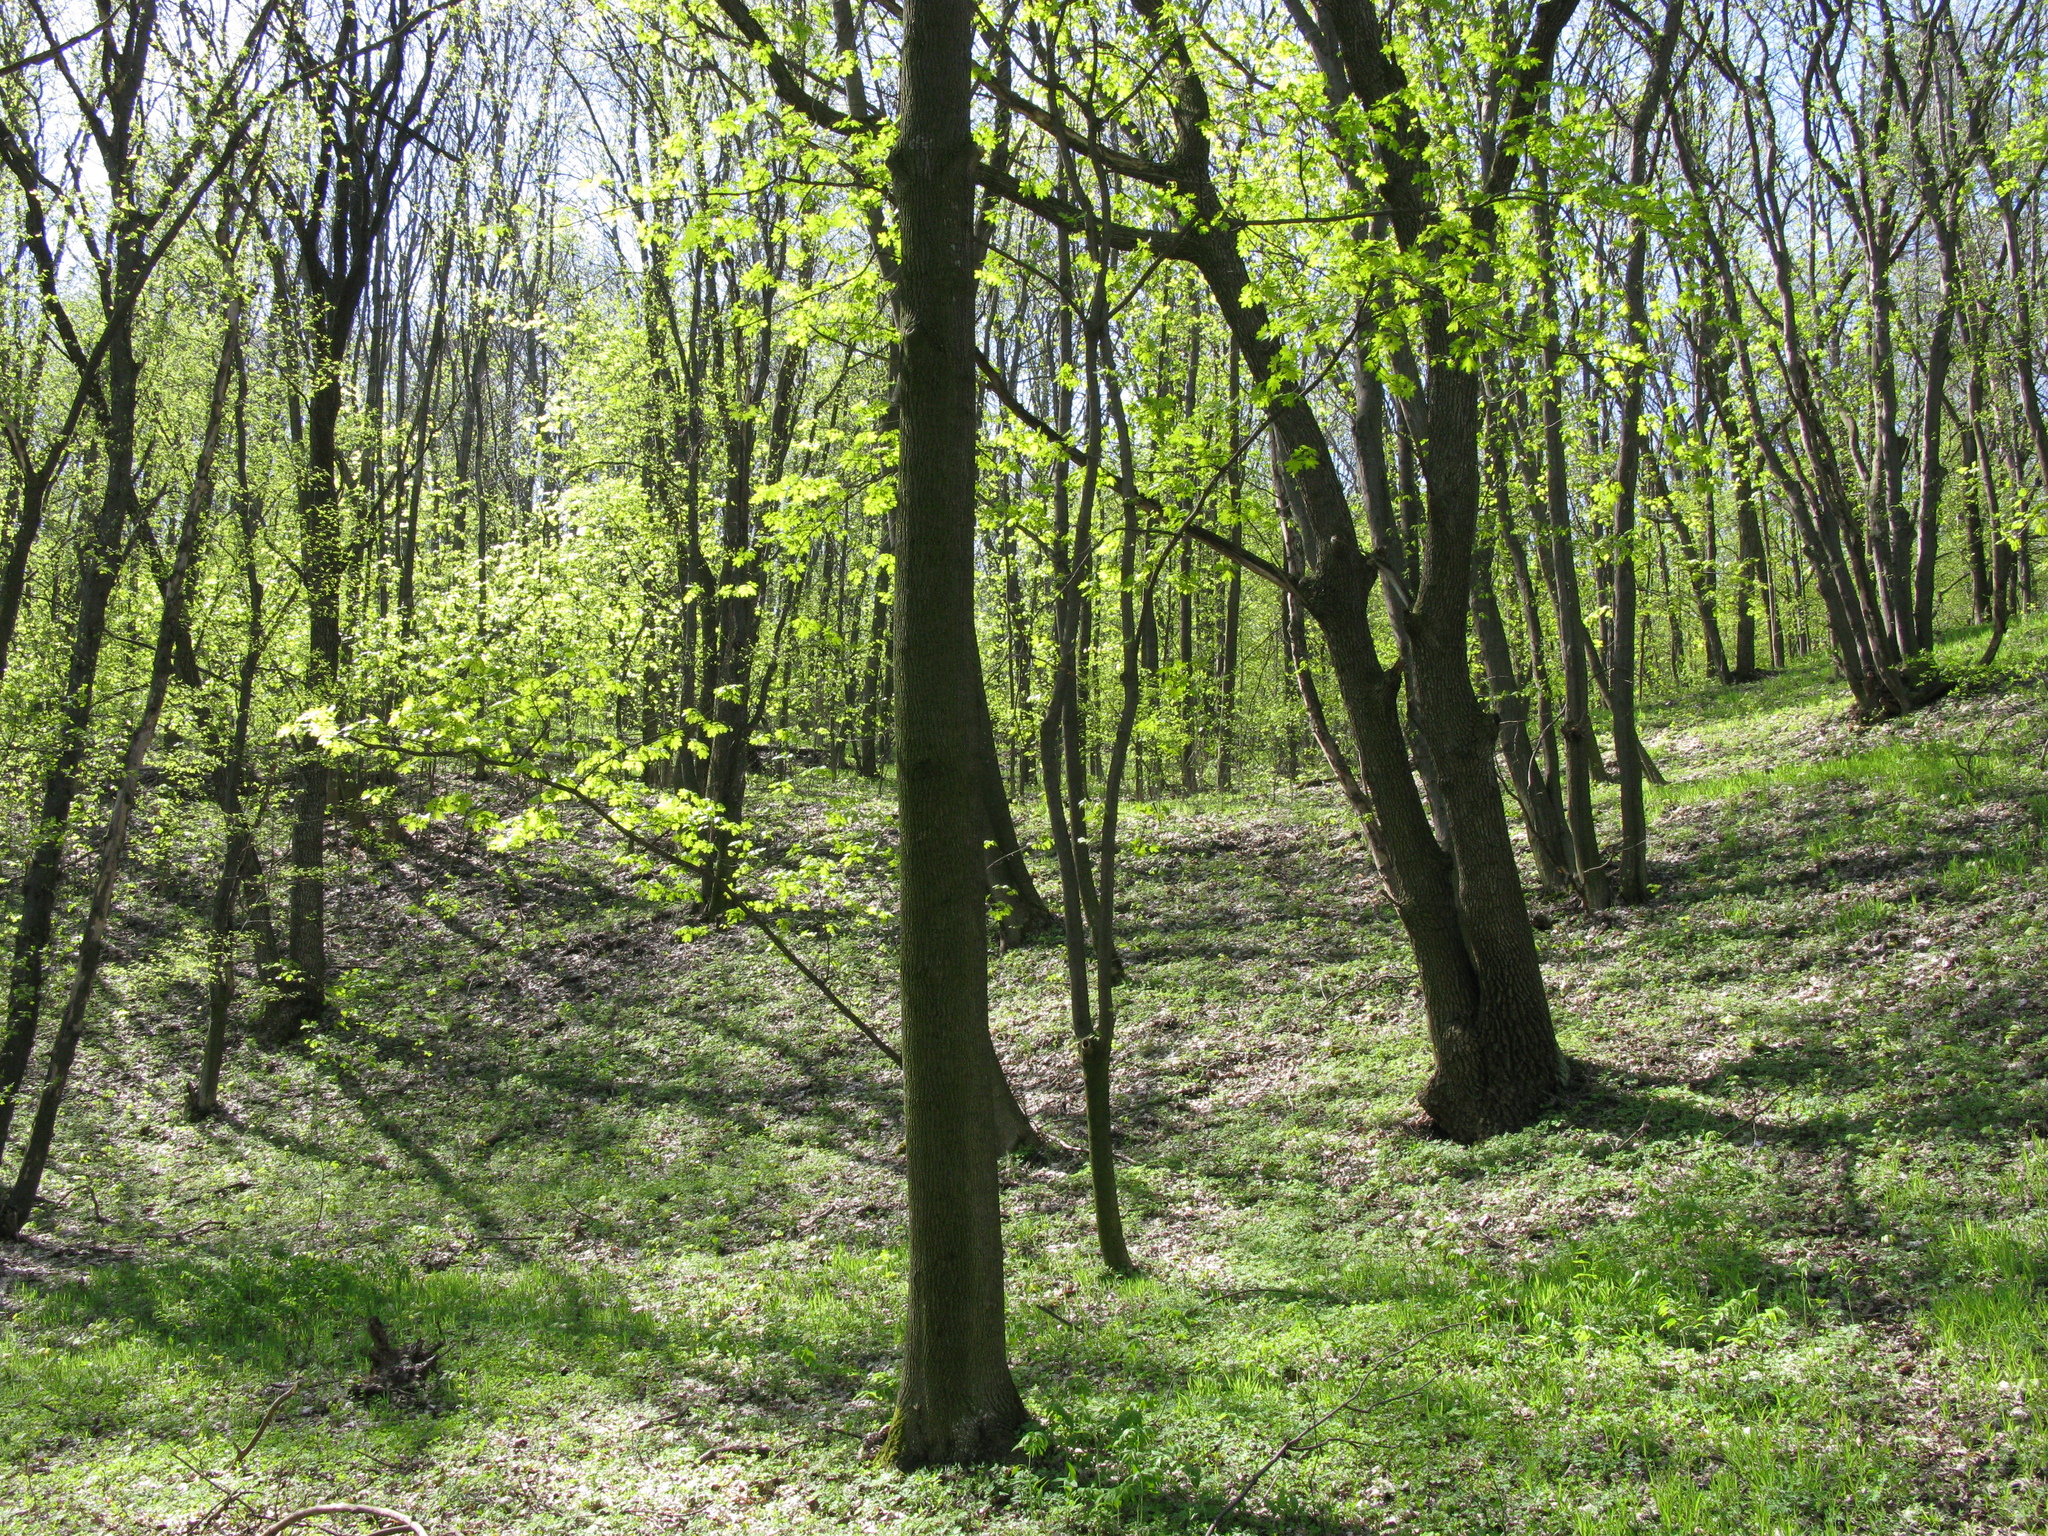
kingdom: Plantae
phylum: Tracheophyta
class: Magnoliopsida
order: Sapindales
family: Sapindaceae
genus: Acer
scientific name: Acer platanoides
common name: Norway maple
